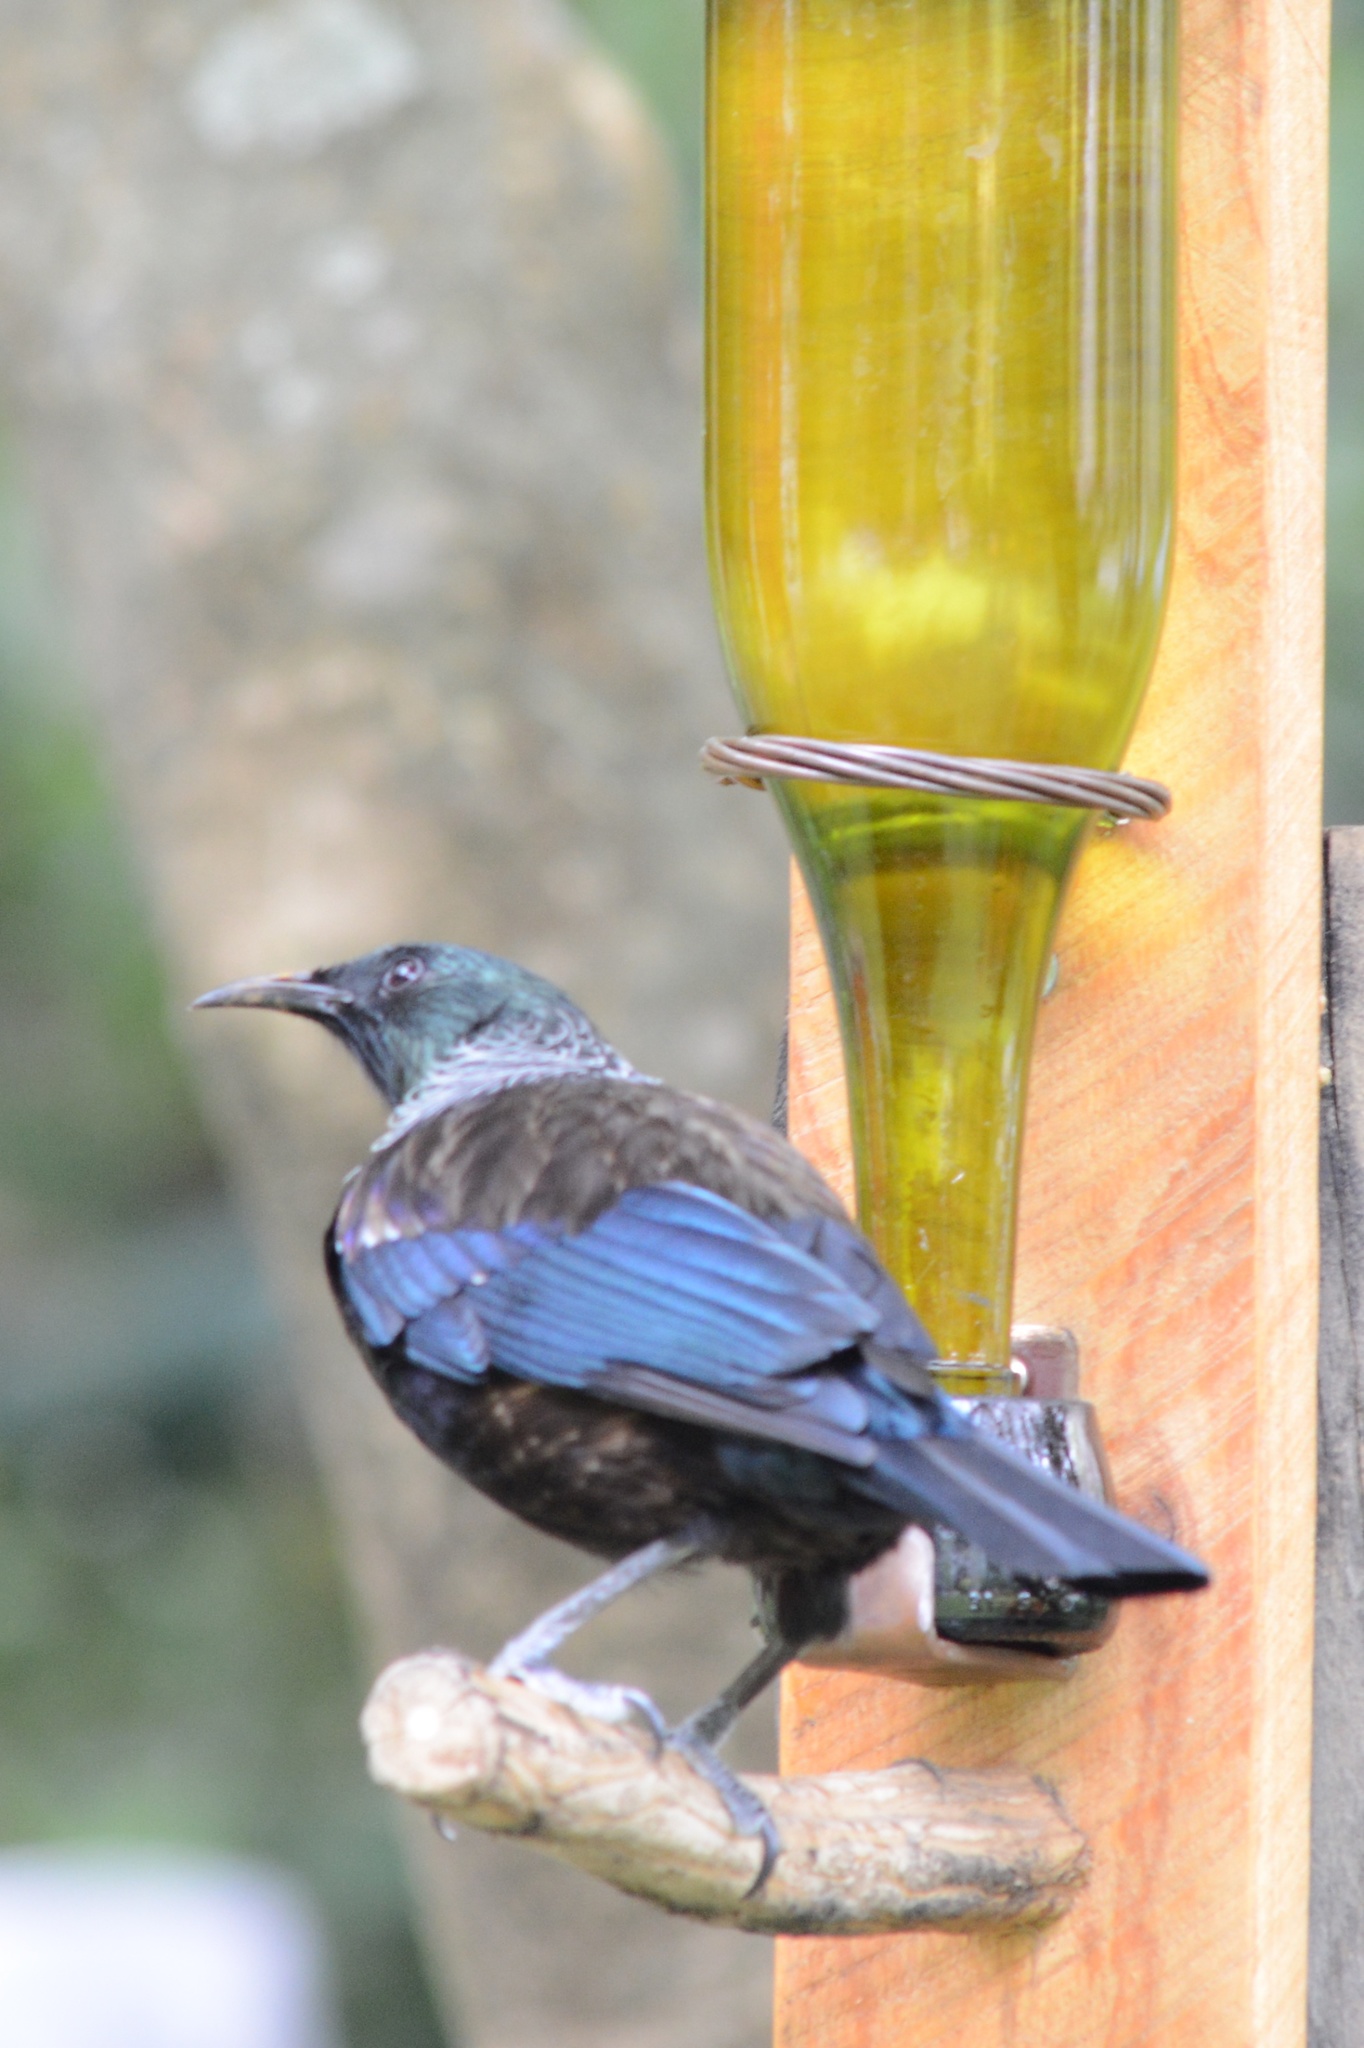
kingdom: Animalia
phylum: Chordata
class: Aves
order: Passeriformes
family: Meliphagidae
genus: Prosthemadera
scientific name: Prosthemadera novaeseelandiae
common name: Tui
